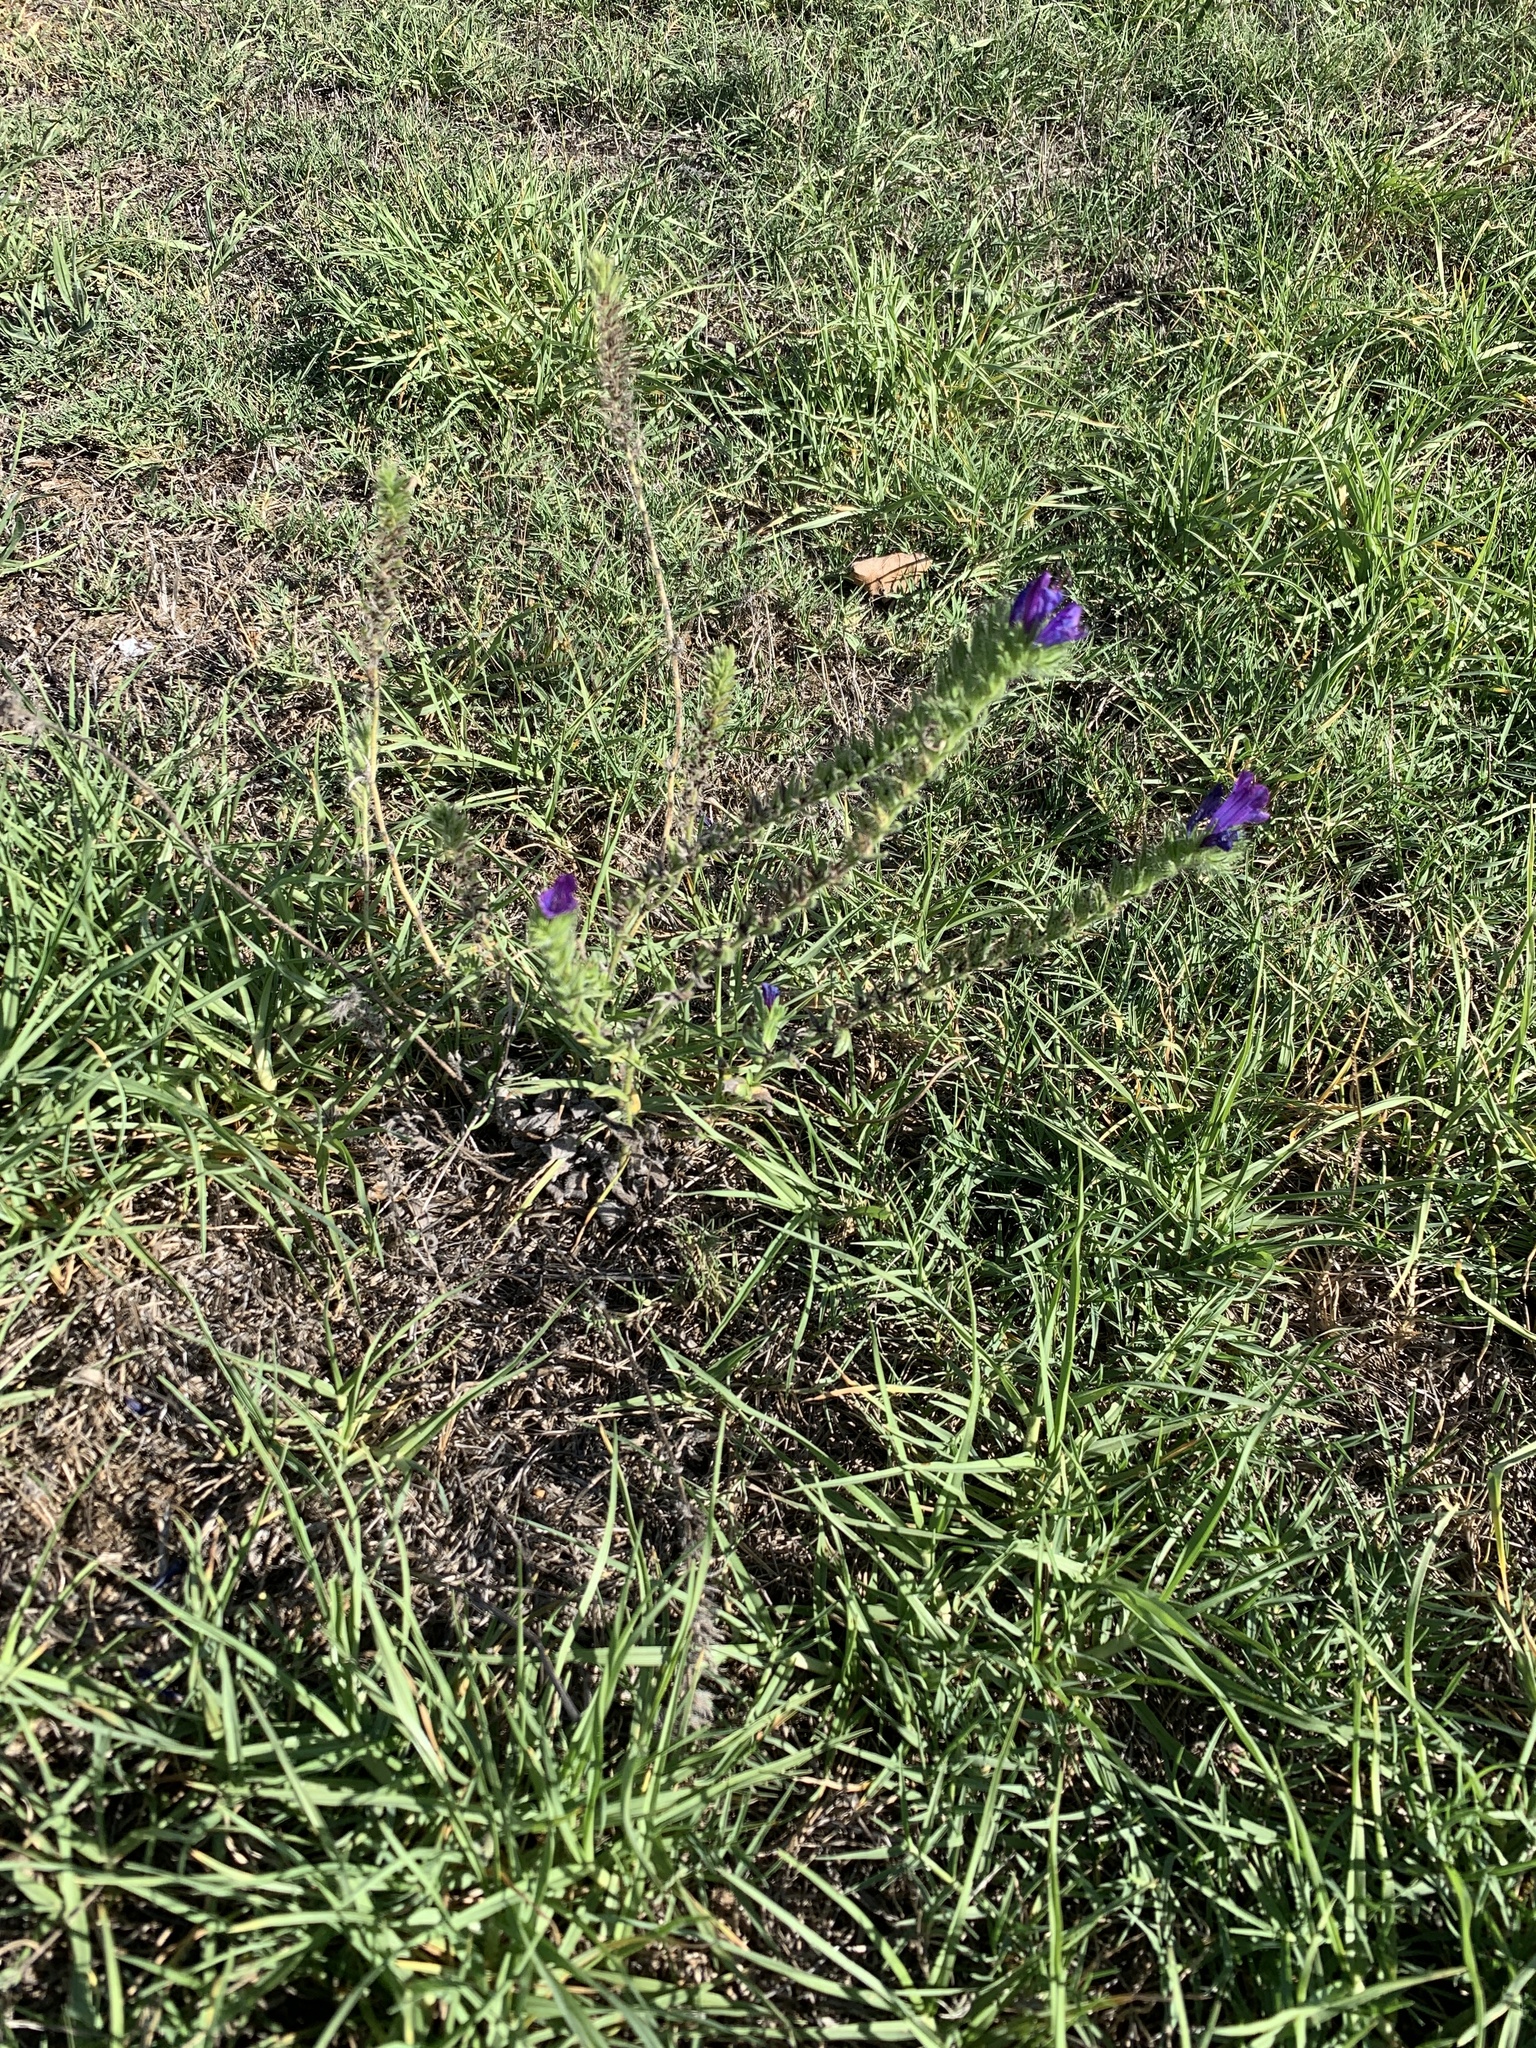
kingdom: Plantae
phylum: Tracheophyta
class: Magnoliopsida
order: Boraginales
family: Boraginaceae
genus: Echium
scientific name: Echium plantagineum
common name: Purple viper's-bugloss
